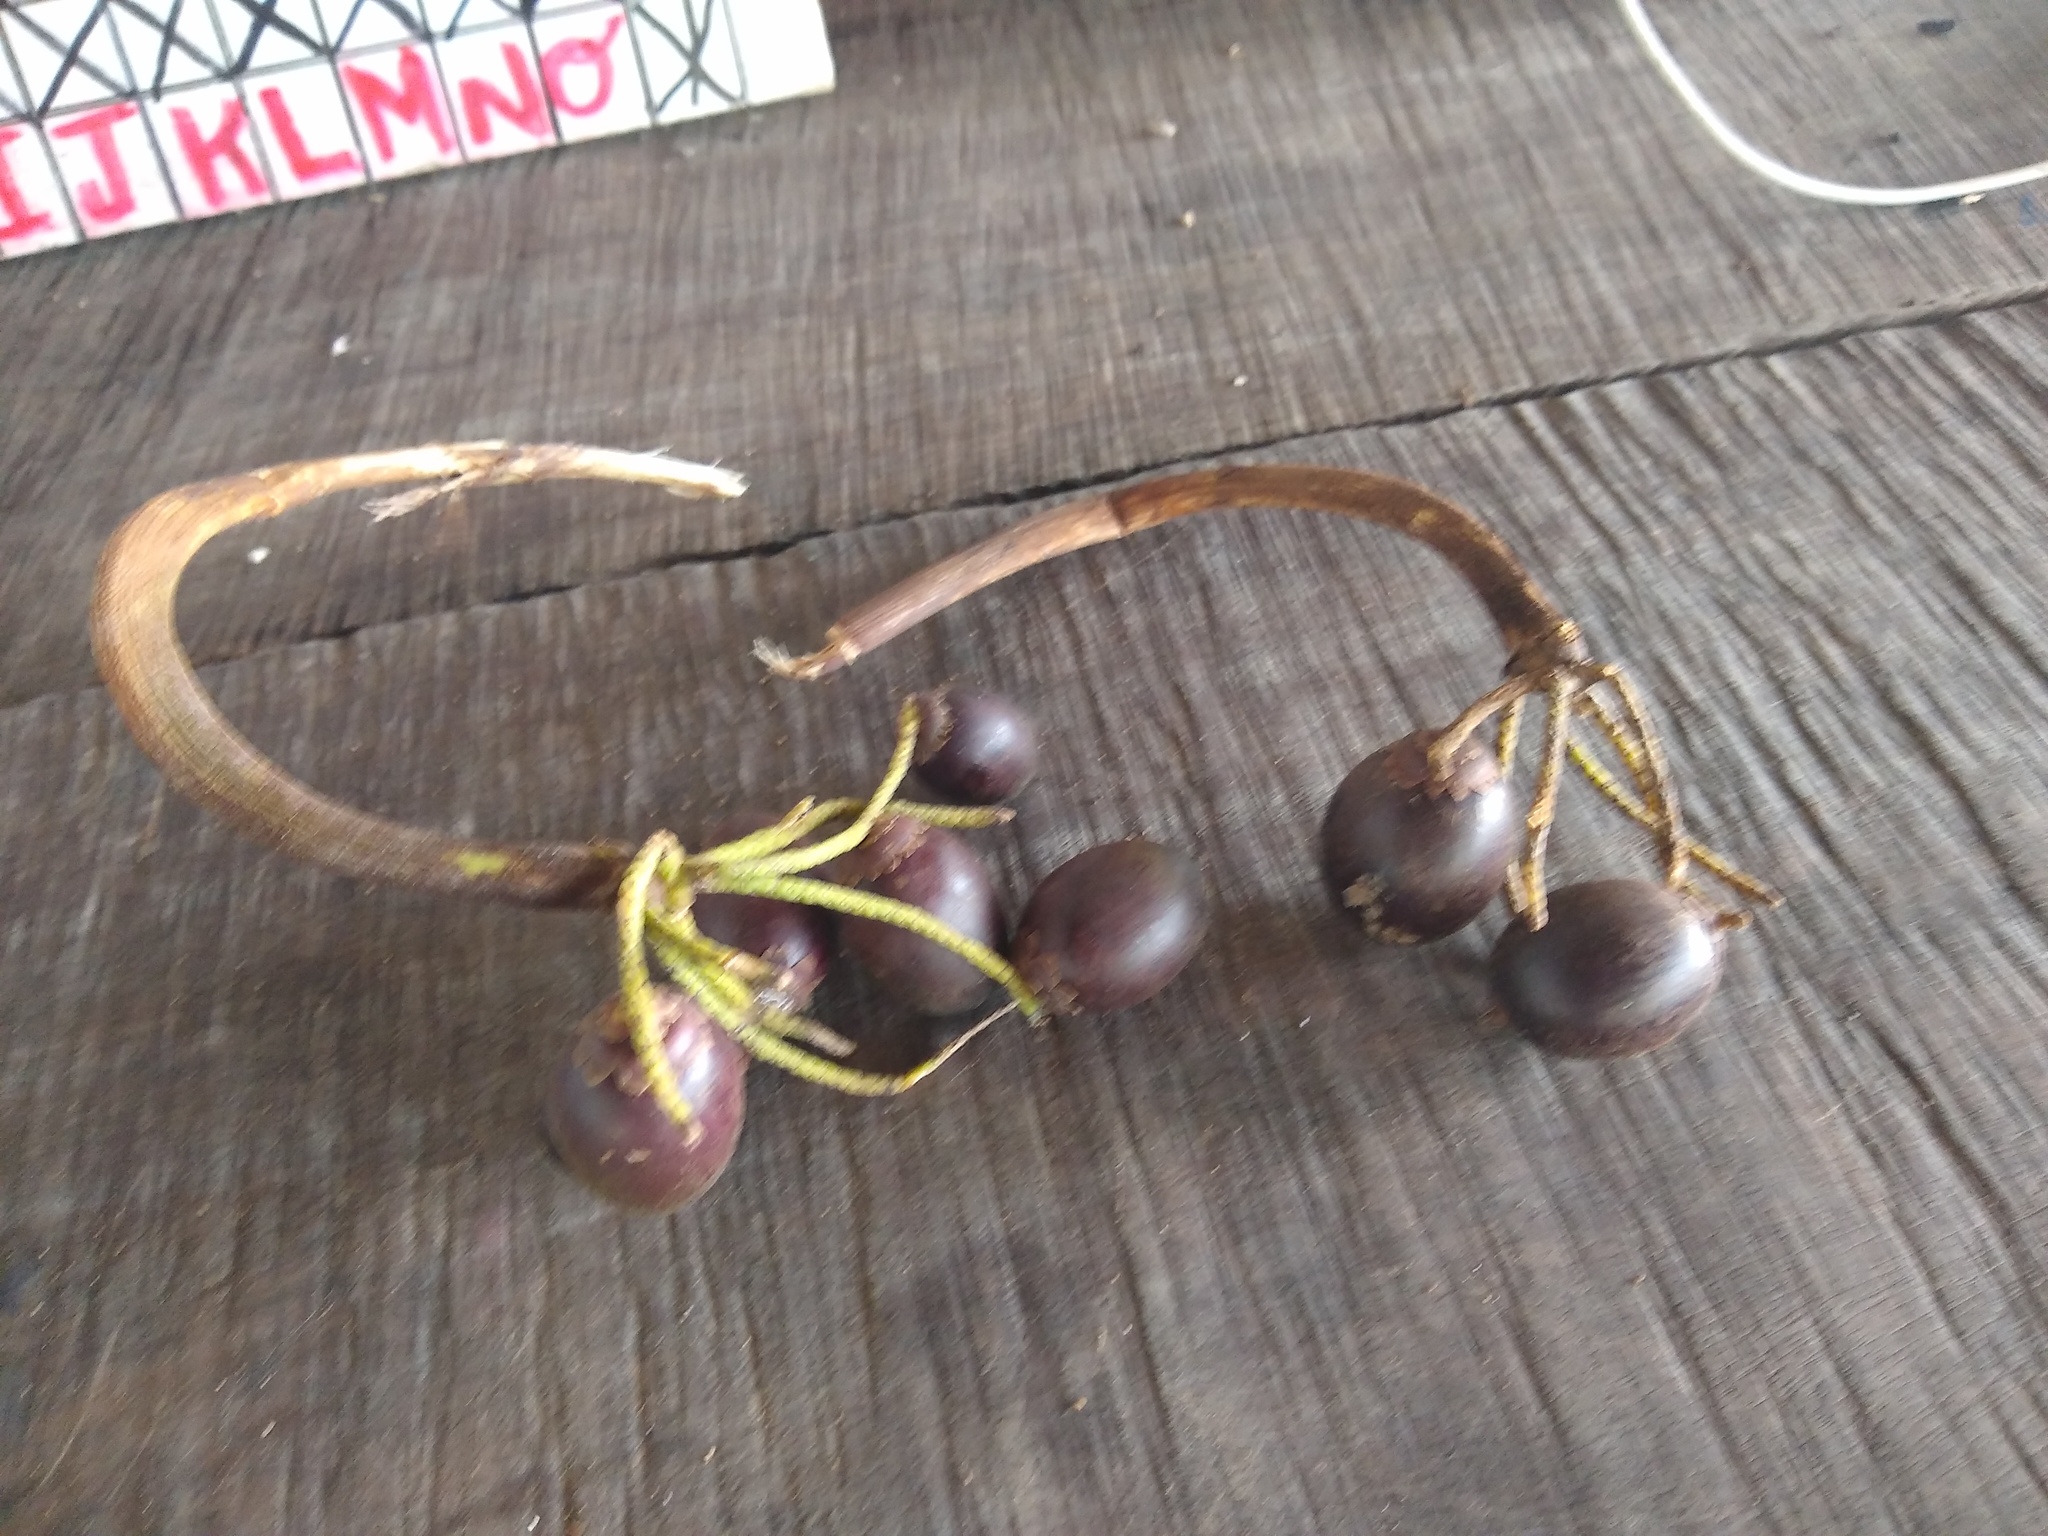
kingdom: Plantae
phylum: Tracheophyta
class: Liliopsida
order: Arecales
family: Arecaceae
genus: Bactris
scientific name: Bactris major
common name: Beach palm
